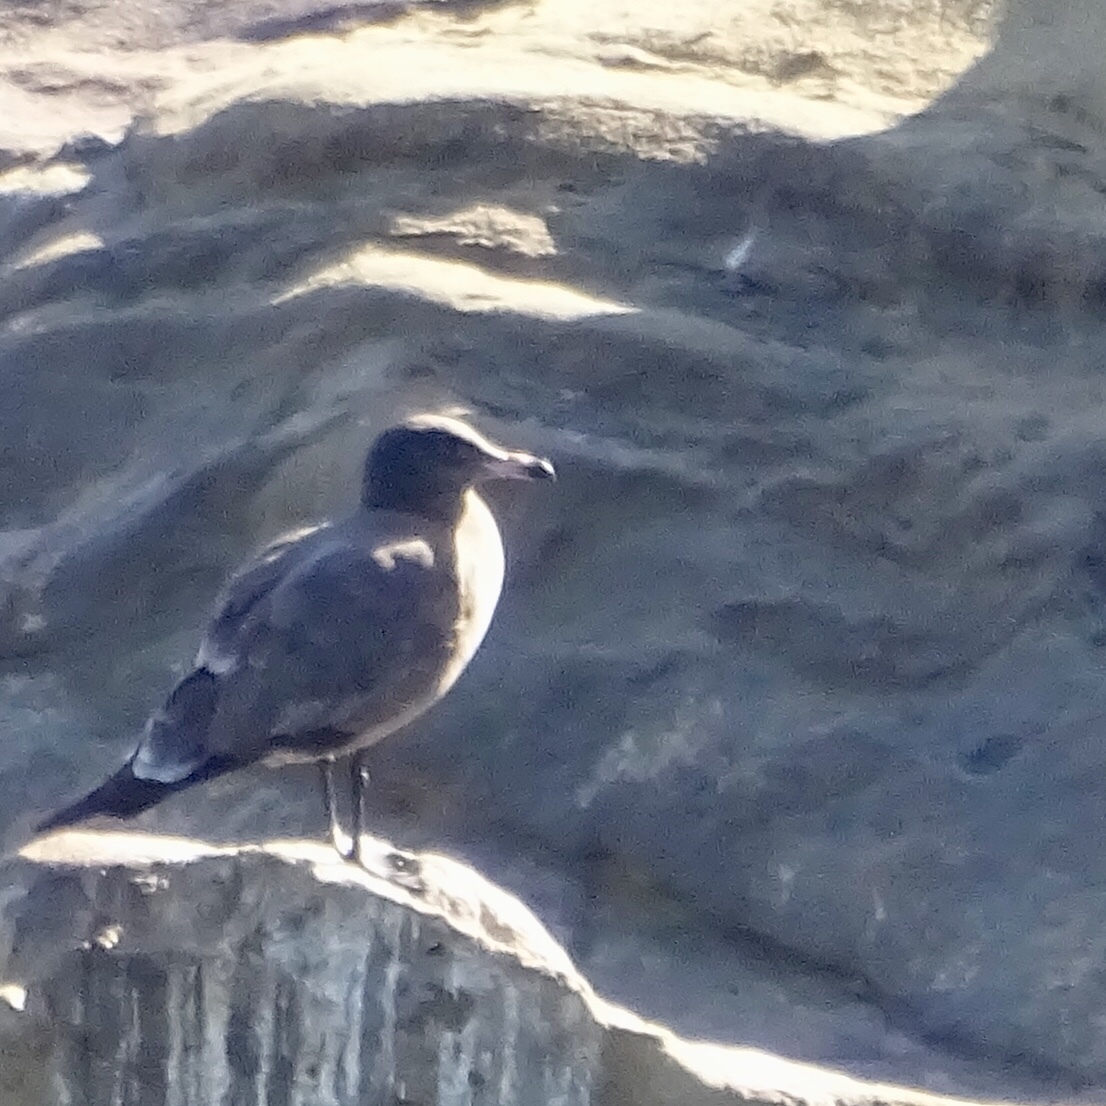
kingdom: Animalia
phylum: Chordata
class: Aves
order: Charadriiformes
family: Laridae
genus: Larus
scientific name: Larus heermanni
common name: Heermann's gull
